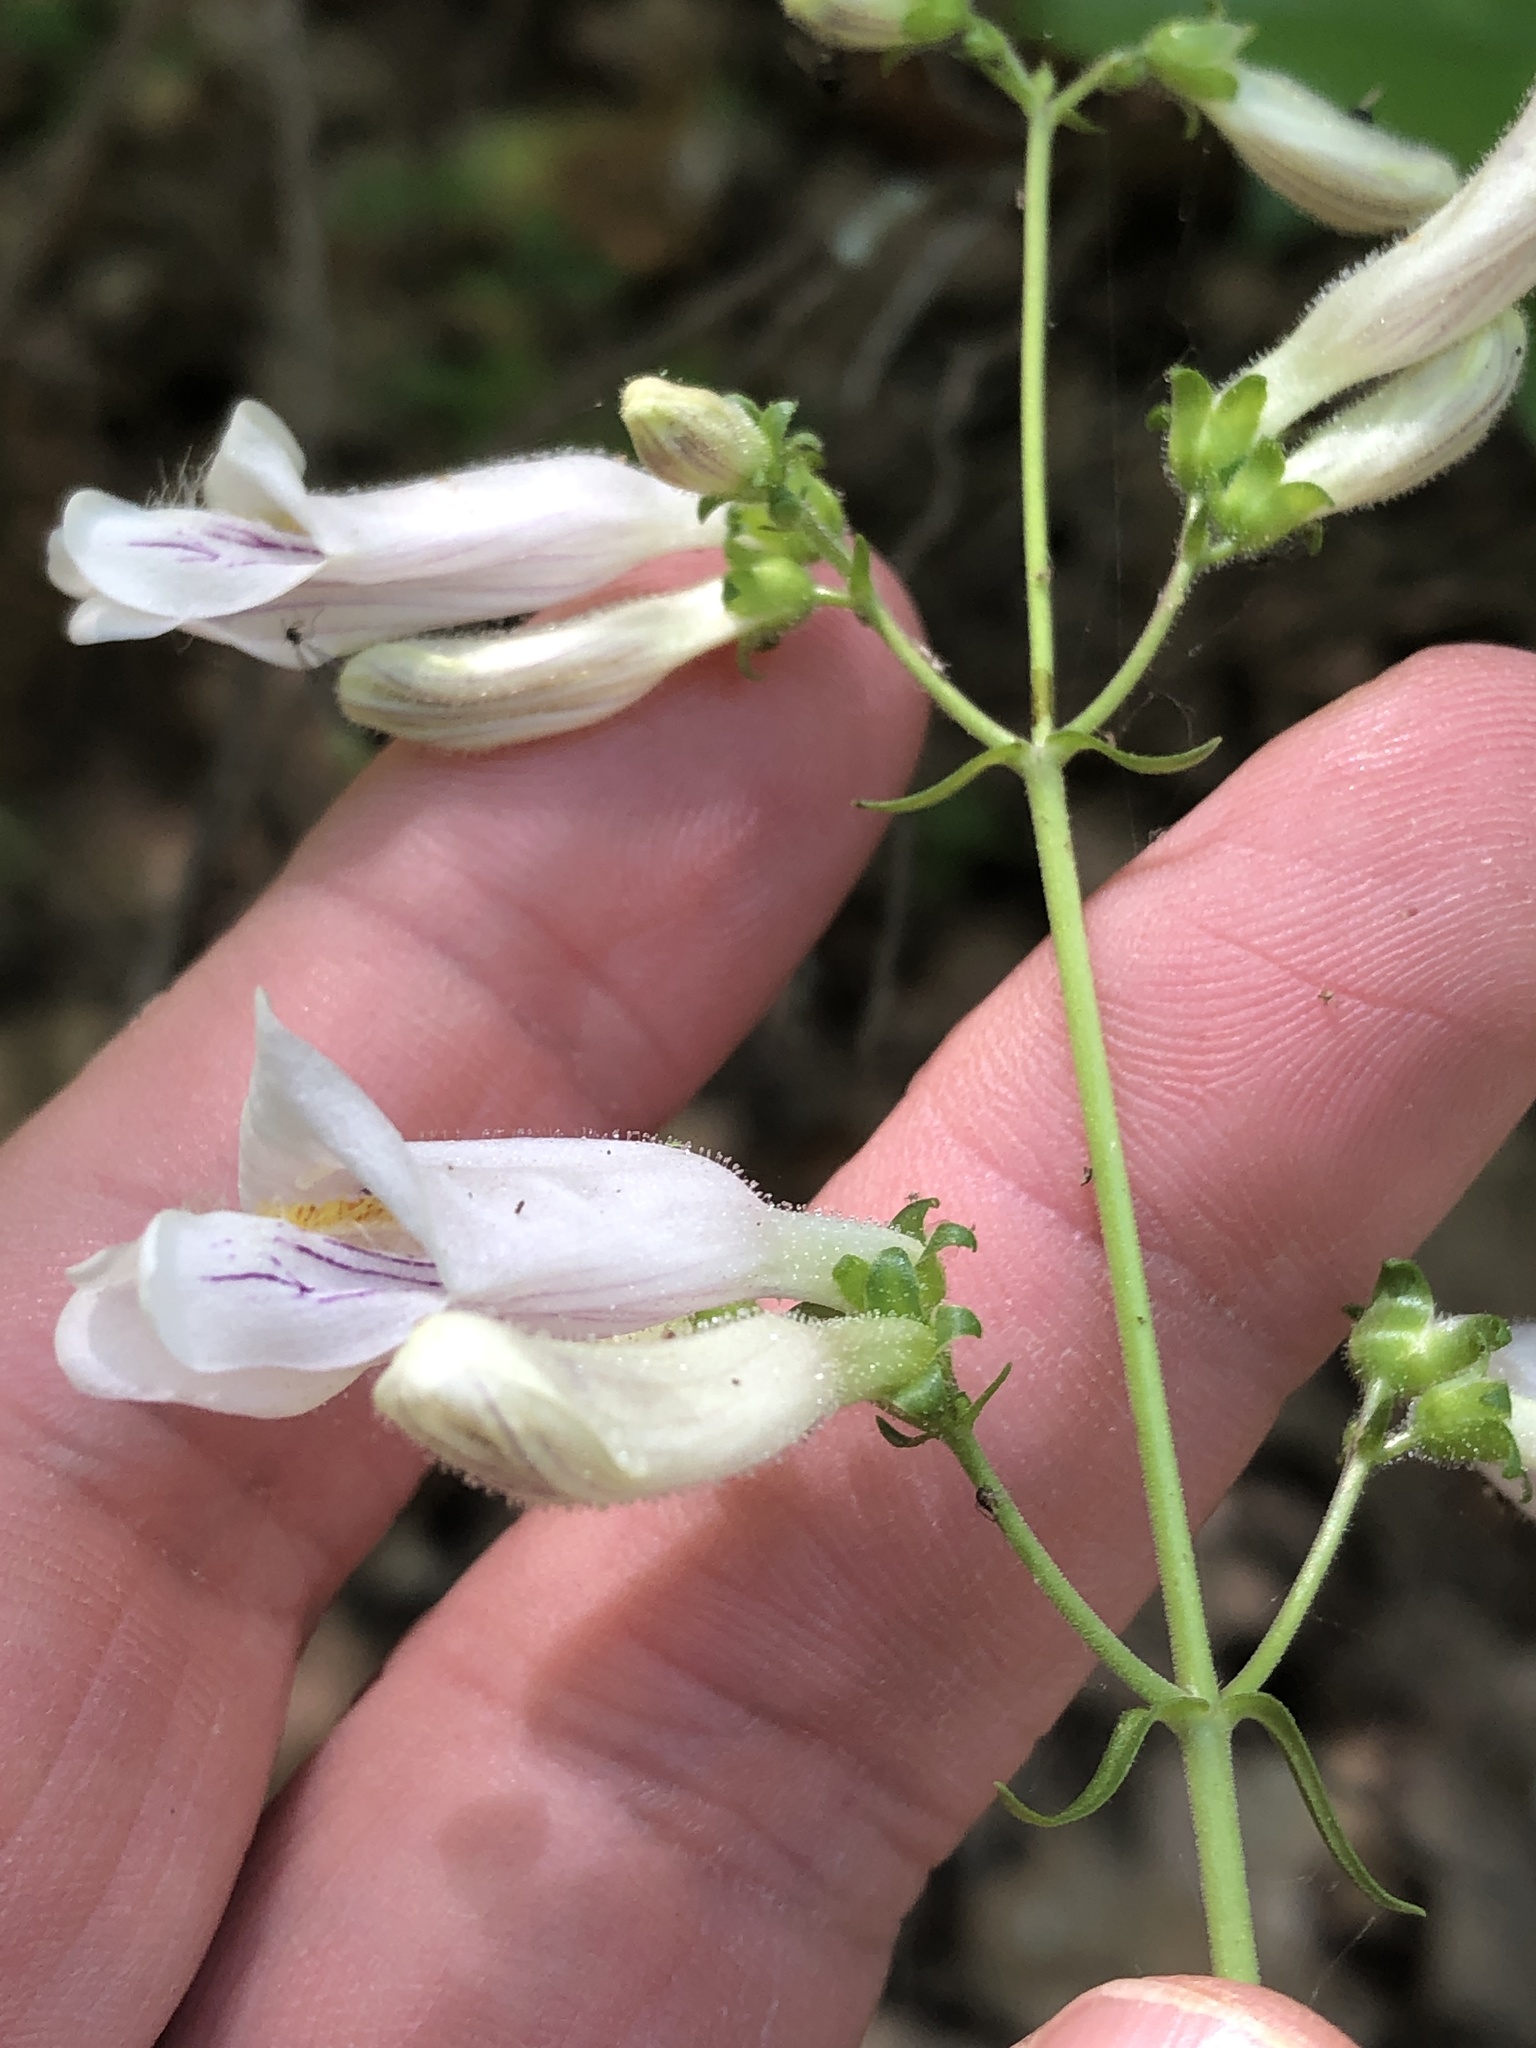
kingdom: Plantae
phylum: Tracheophyta
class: Magnoliopsida
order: Lamiales
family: Plantaginaceae
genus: Penstemon
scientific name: Penstemon laxiflorus
